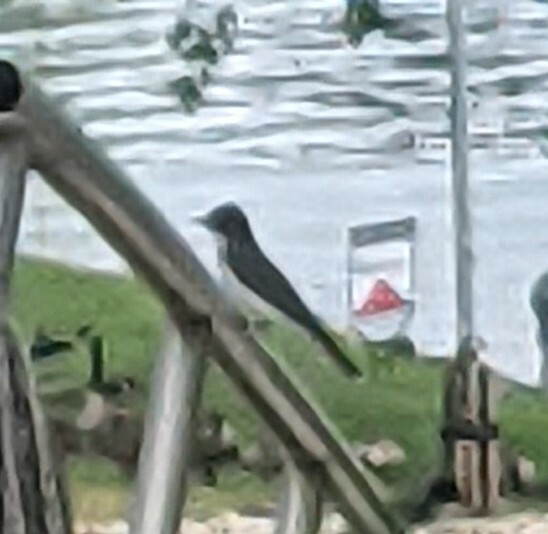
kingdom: Animalia
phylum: Chordata
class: Aves
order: Passeriformes
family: Tyrannidae
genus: Tyrannus
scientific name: Tyrannus tyrannus
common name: Eastern kingbird
